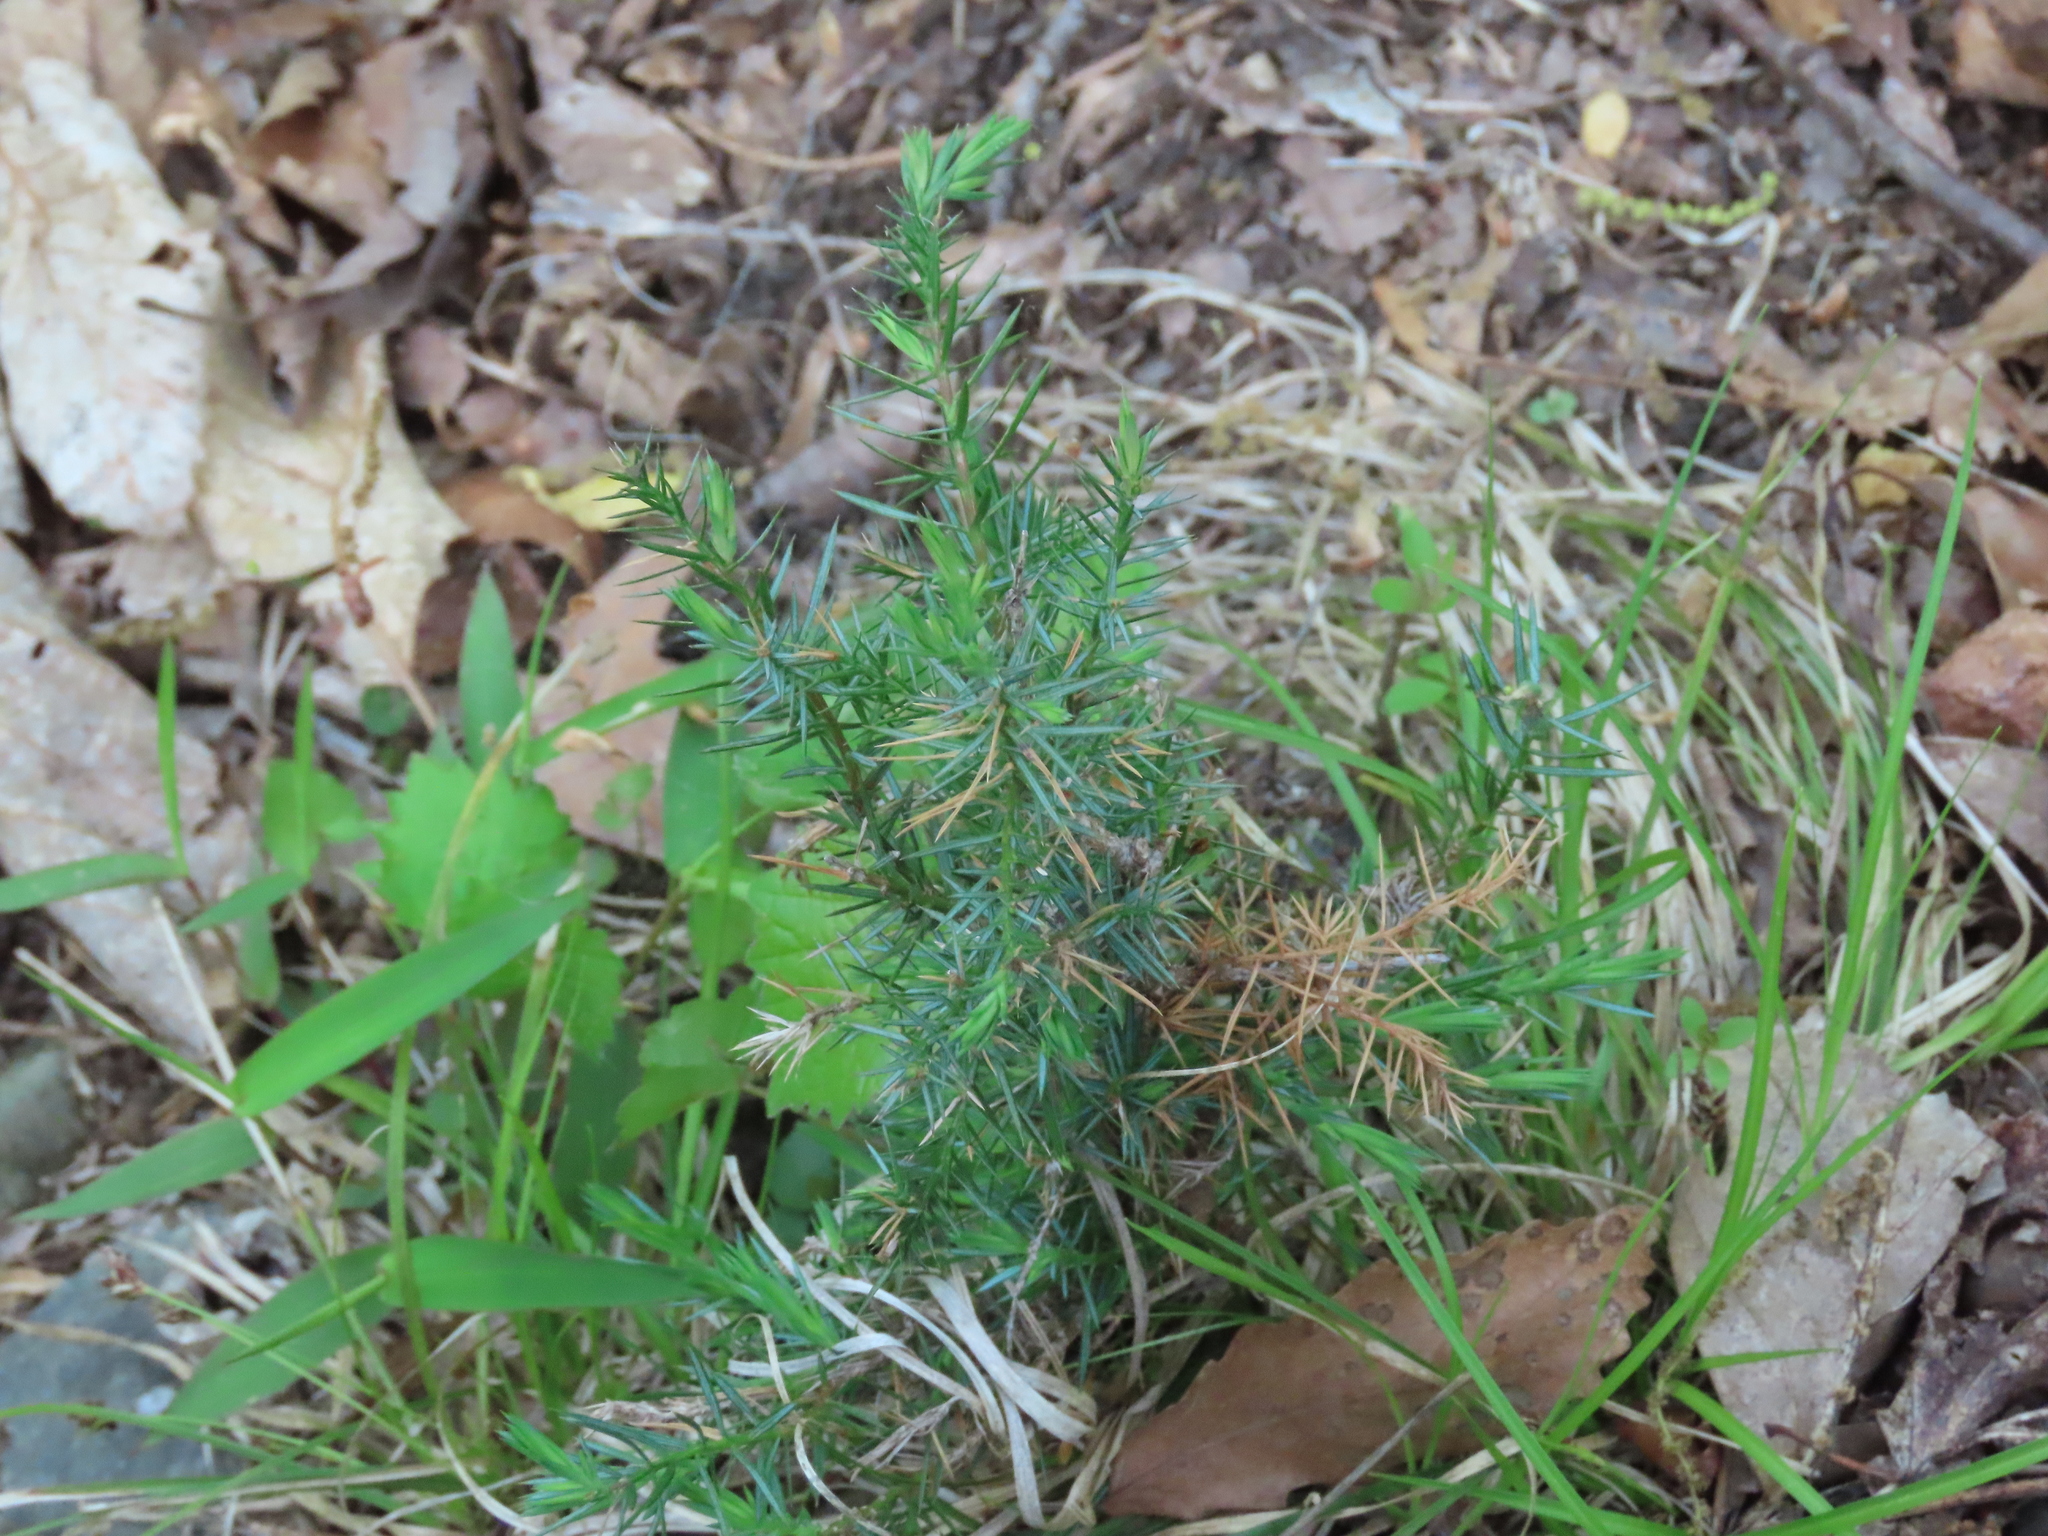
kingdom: Plantae
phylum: Tracheophyta
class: Pinopsida
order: Pinales
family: Cupressaceae
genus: Juniperus
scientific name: Juniperus virginiana
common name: Red juniper
